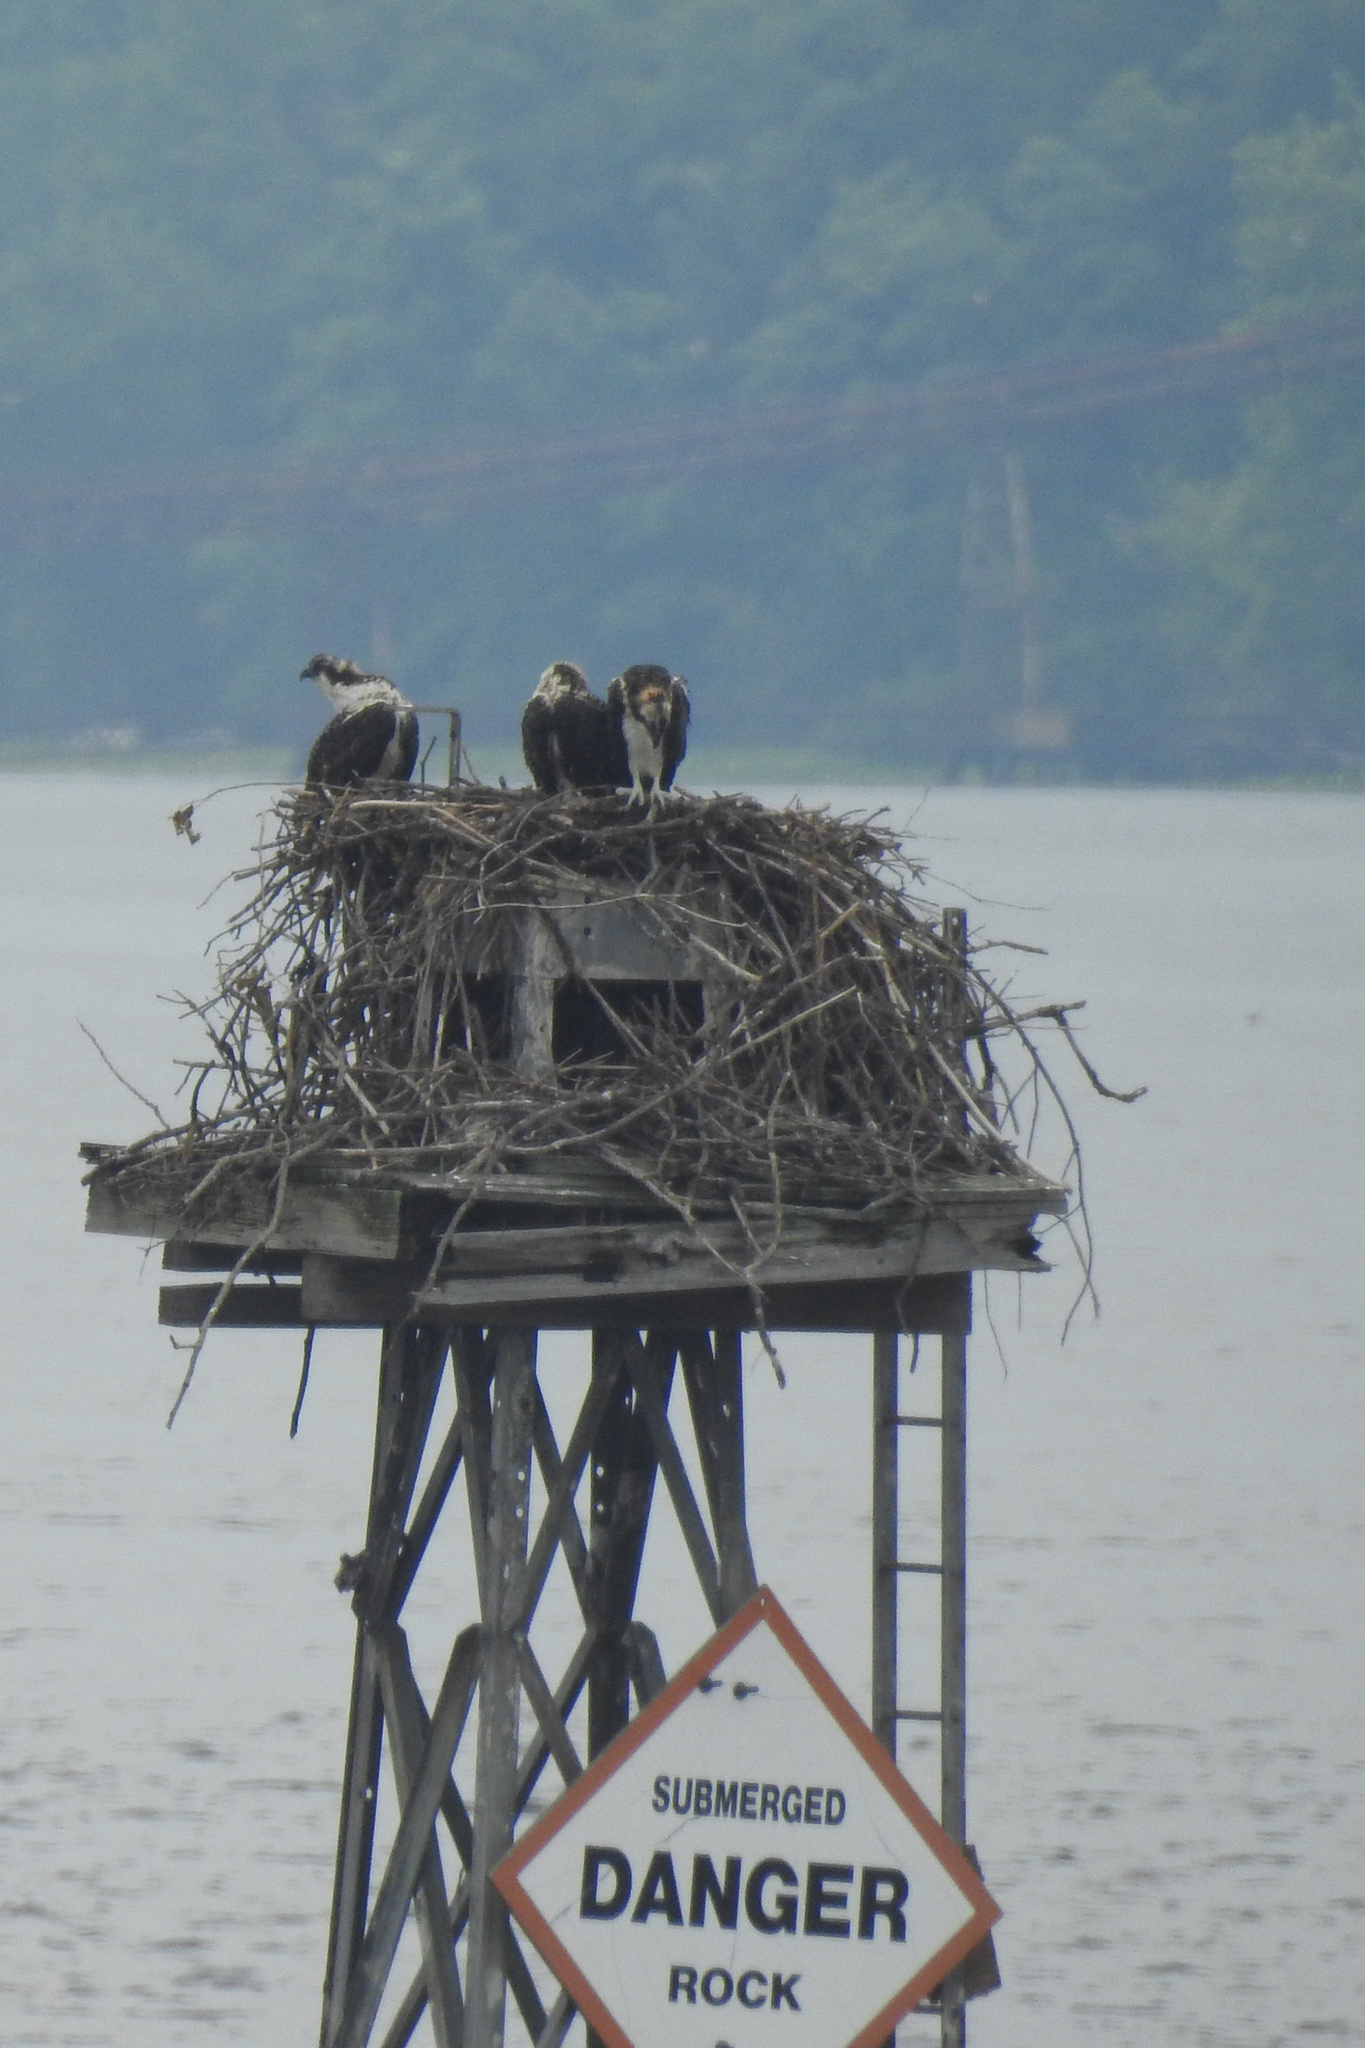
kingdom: Animalia
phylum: Chordata
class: Aves
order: Accipitriformes
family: Pandionidae
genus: Pandion
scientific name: Pandion haliaetus
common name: Osprey
